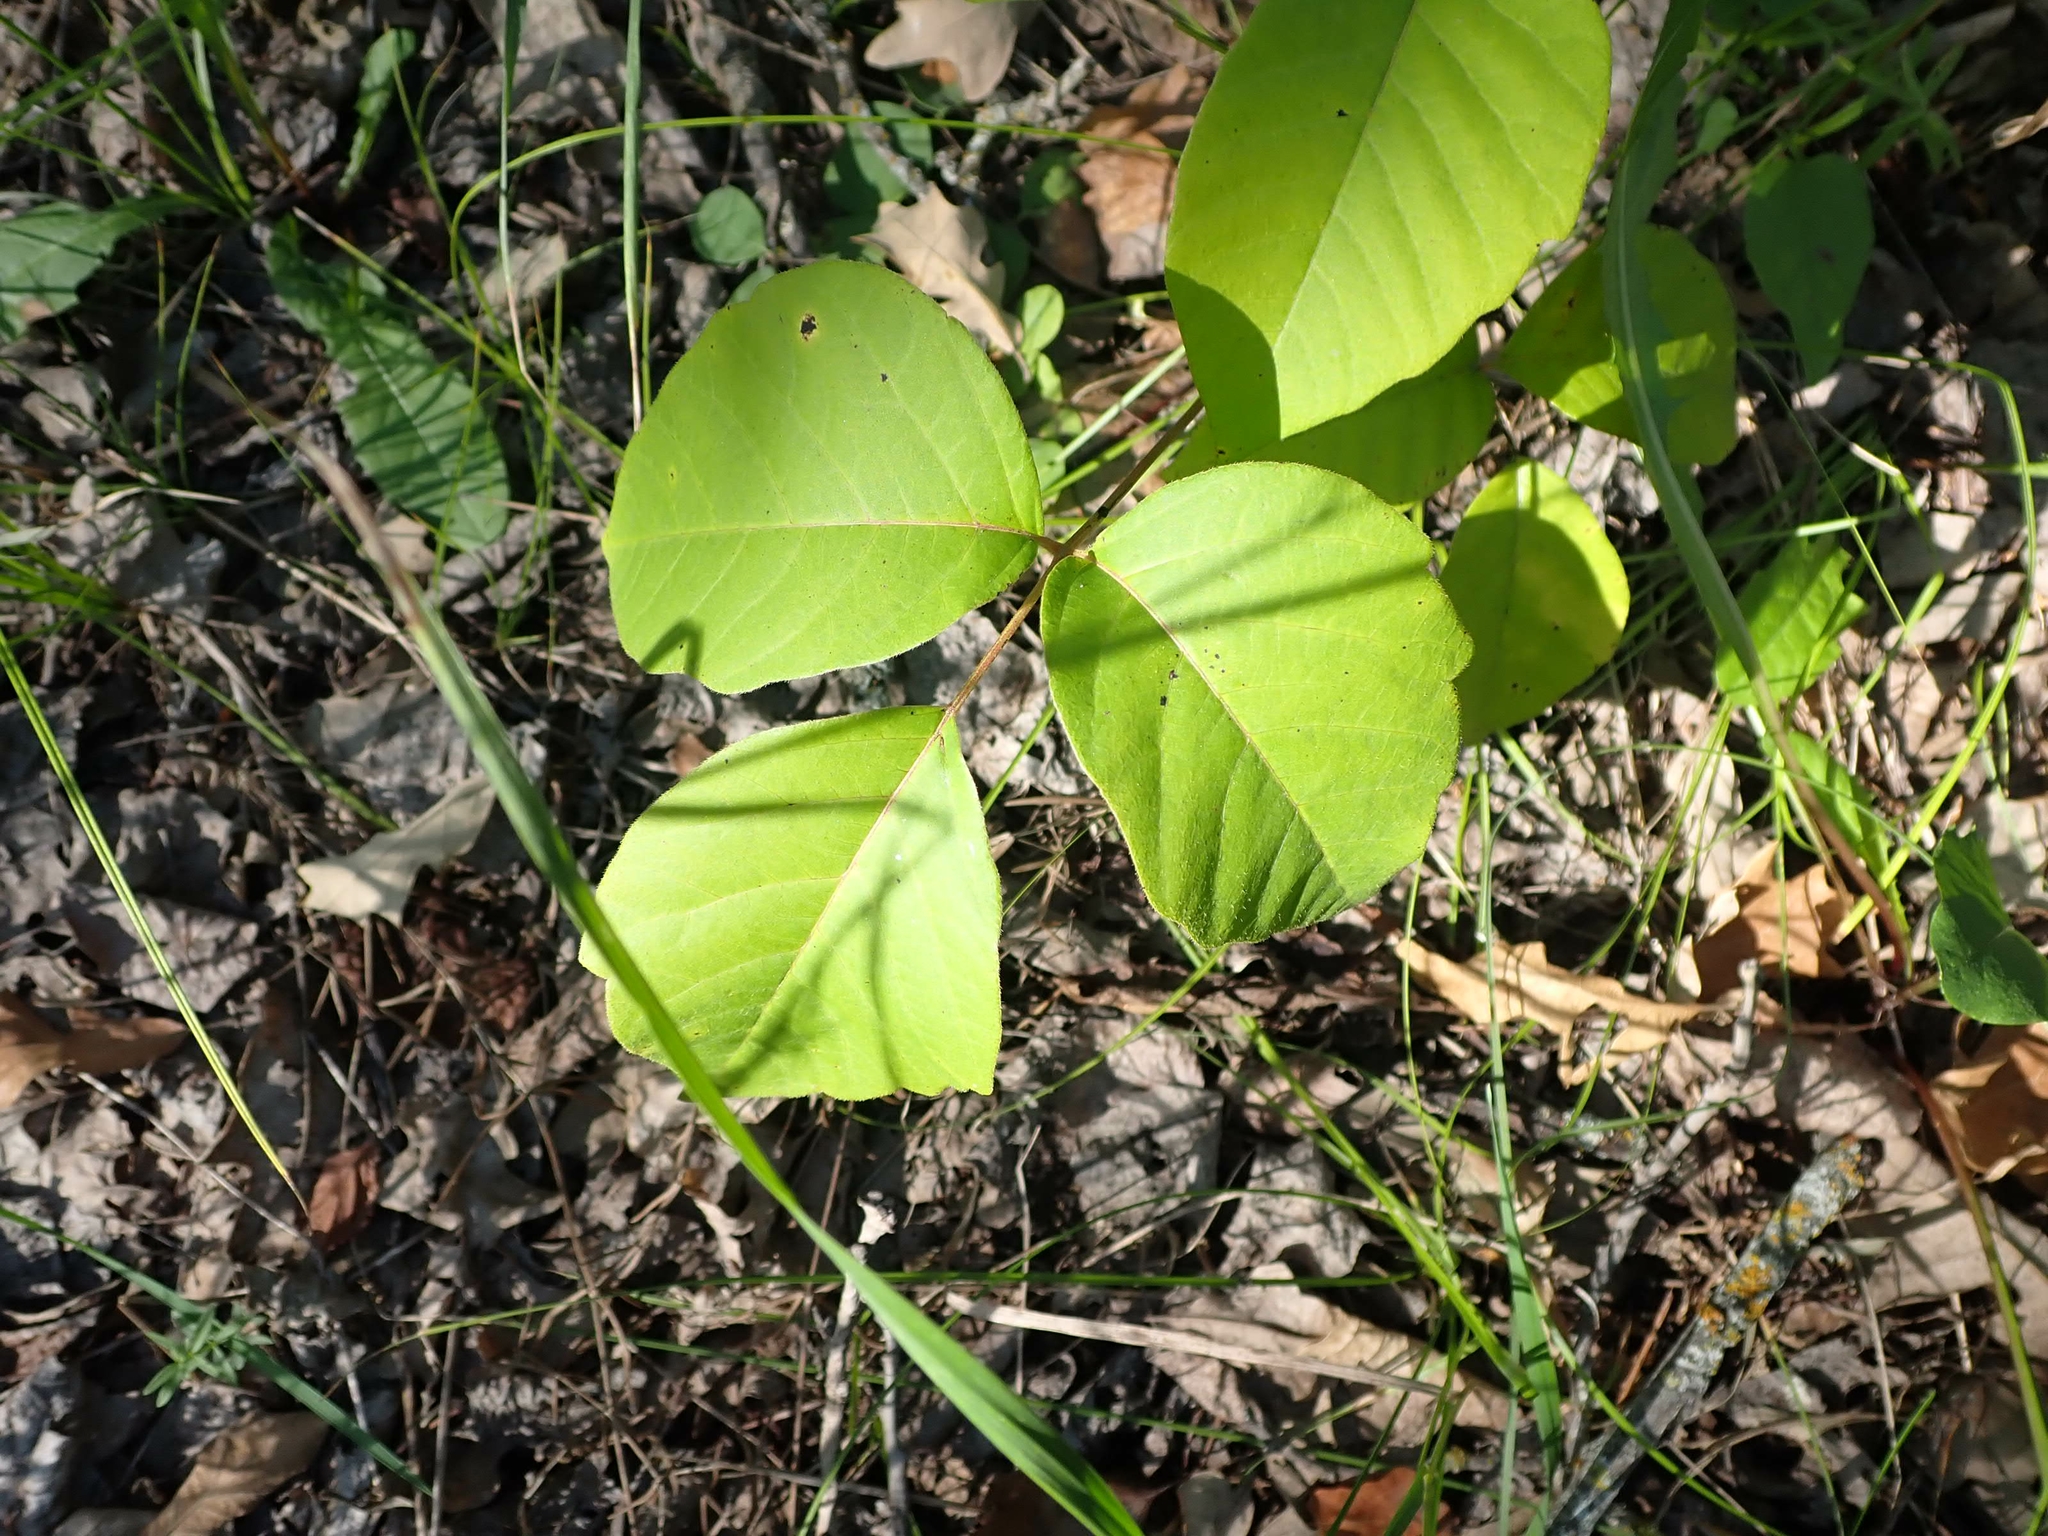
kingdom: Plantae
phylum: Tracheophyta
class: Magnoliopsida
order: Sapindales
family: Anacardiaceae
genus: Toxicodendron
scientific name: Toxicodendron rydbergii
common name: Rydberg's poison-ivy
